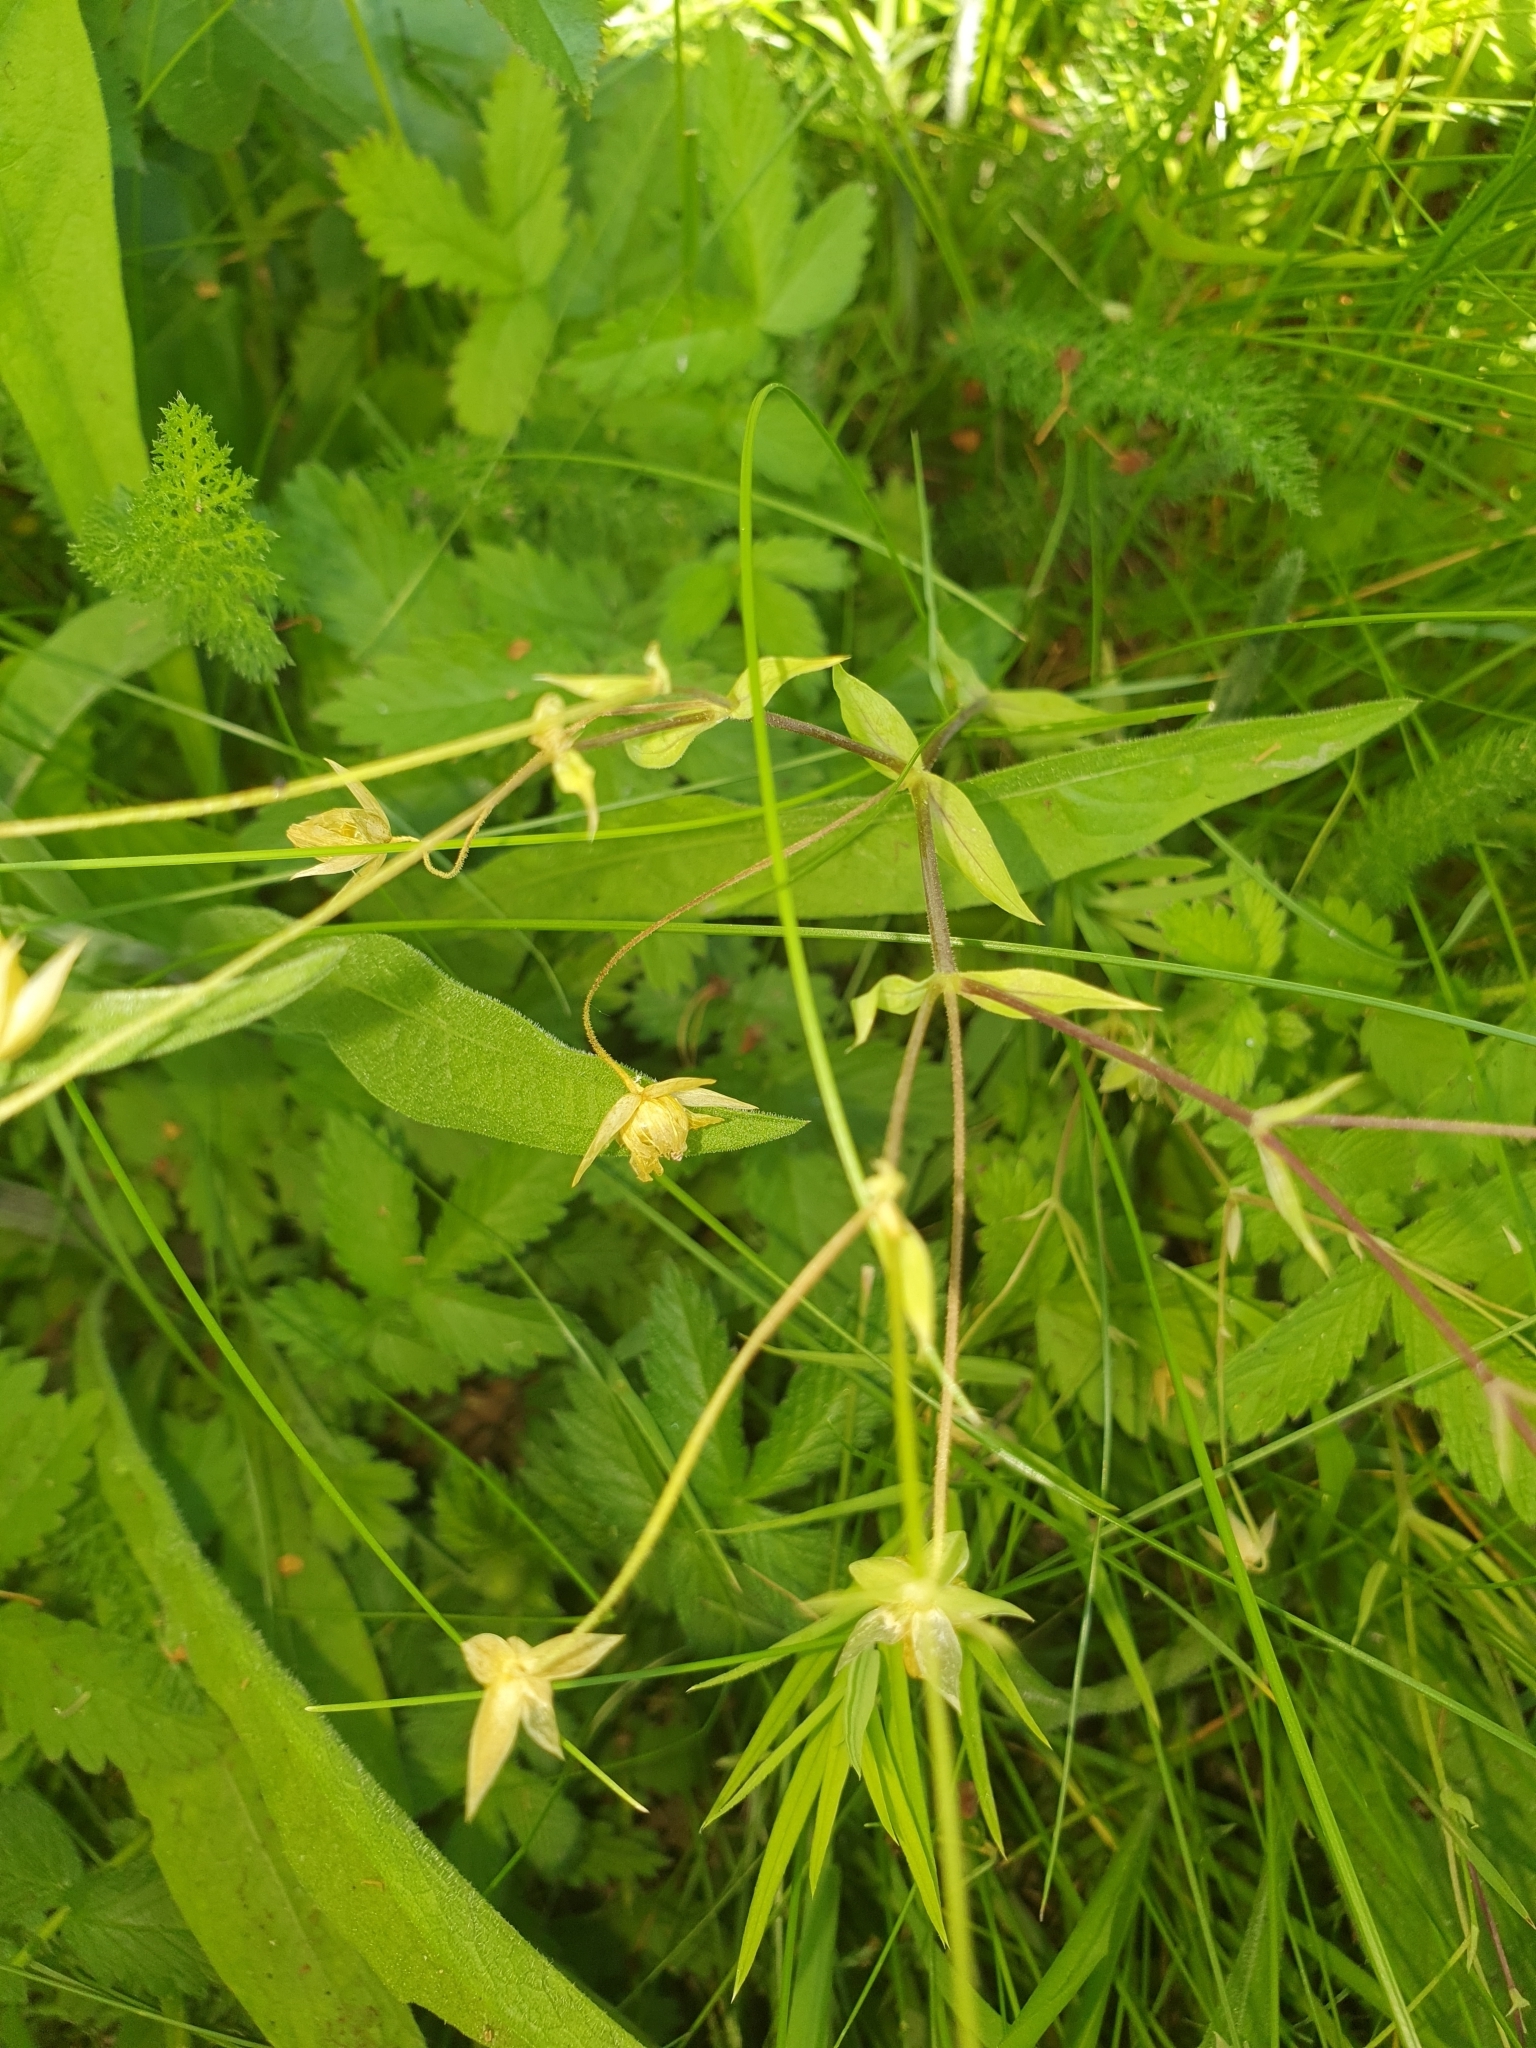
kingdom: Plantae
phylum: Tracheophyta
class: Magnoliopsida
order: Caryophyllales
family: Caryophyllaceae
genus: Rabelera
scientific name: Rabelera holostea
